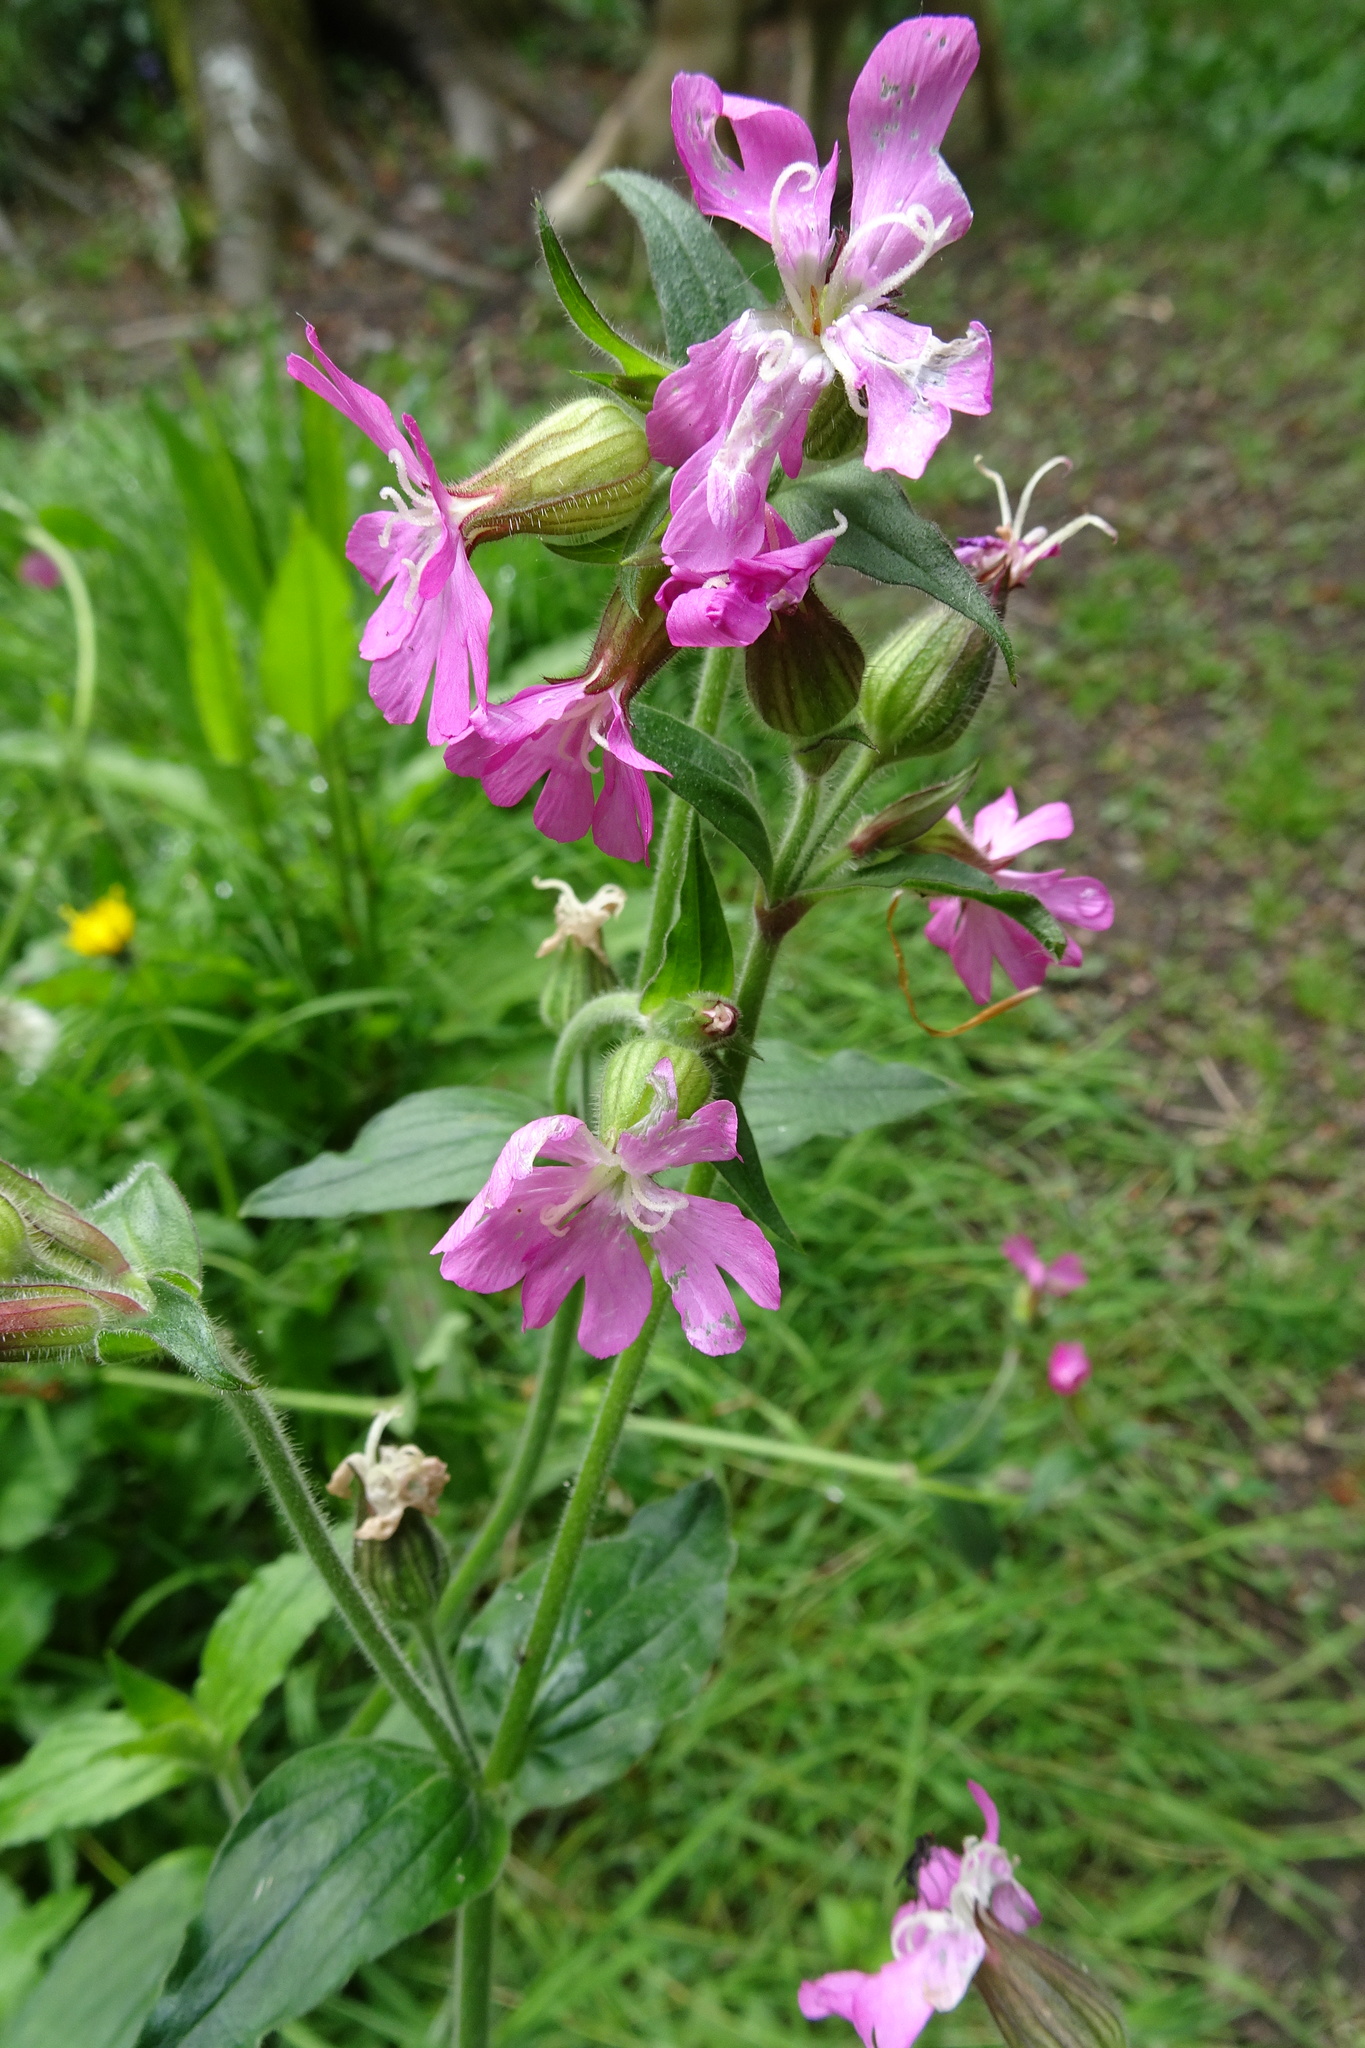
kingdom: Plantae
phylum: Tracheophyta
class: Magnoliopsida
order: Caryophyllales
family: Caryophyllaceae
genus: Silene
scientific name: Silene dioica
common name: Red campion
